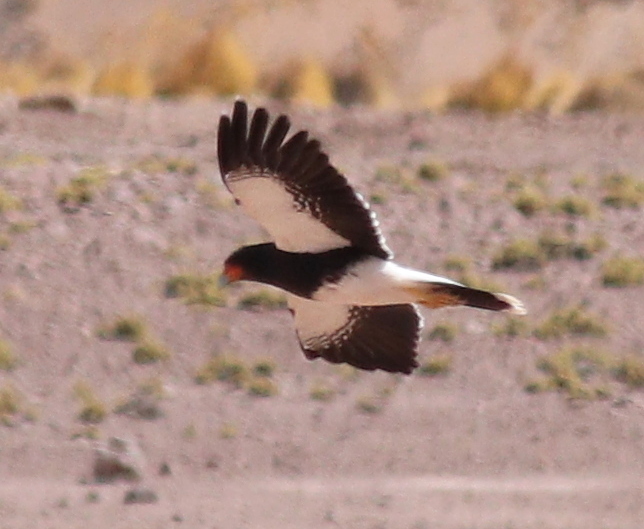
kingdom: Animalia
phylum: Chordata
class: Aves
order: Falconiformes
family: Falconidae
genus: Daptrius
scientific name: Daptrius
